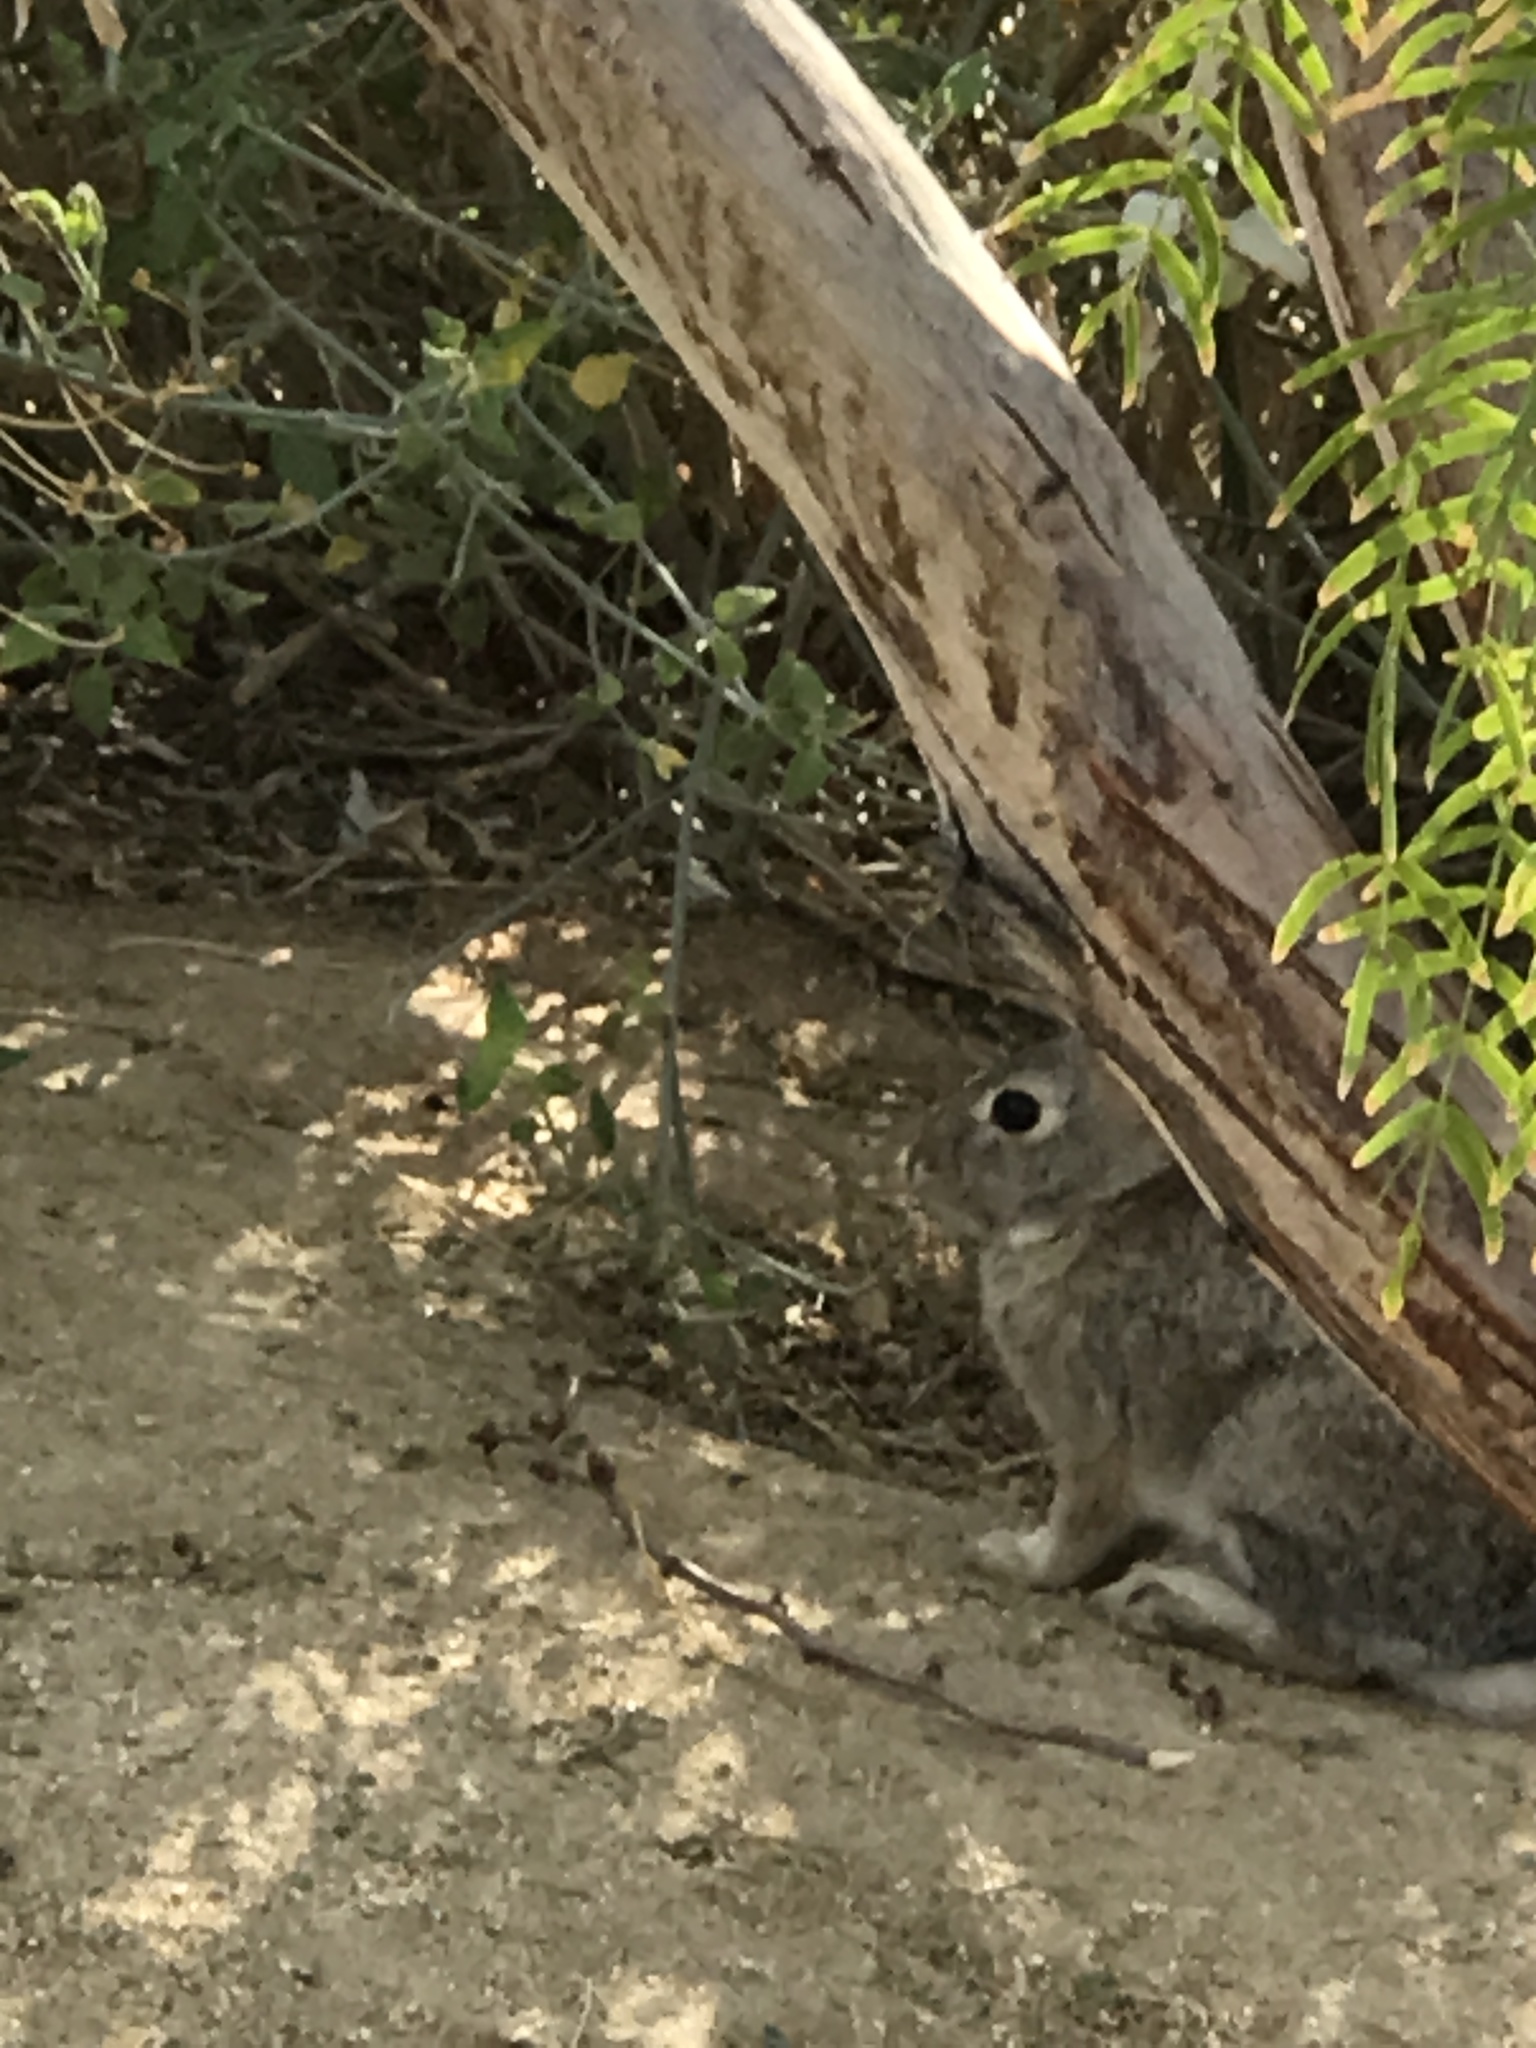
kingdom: Animalia
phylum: Chordata
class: Mammalia
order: Lagomorpha
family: Leporidae
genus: Sylvilagus
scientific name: Sylvilagus audubonii
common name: Desert cottontail
